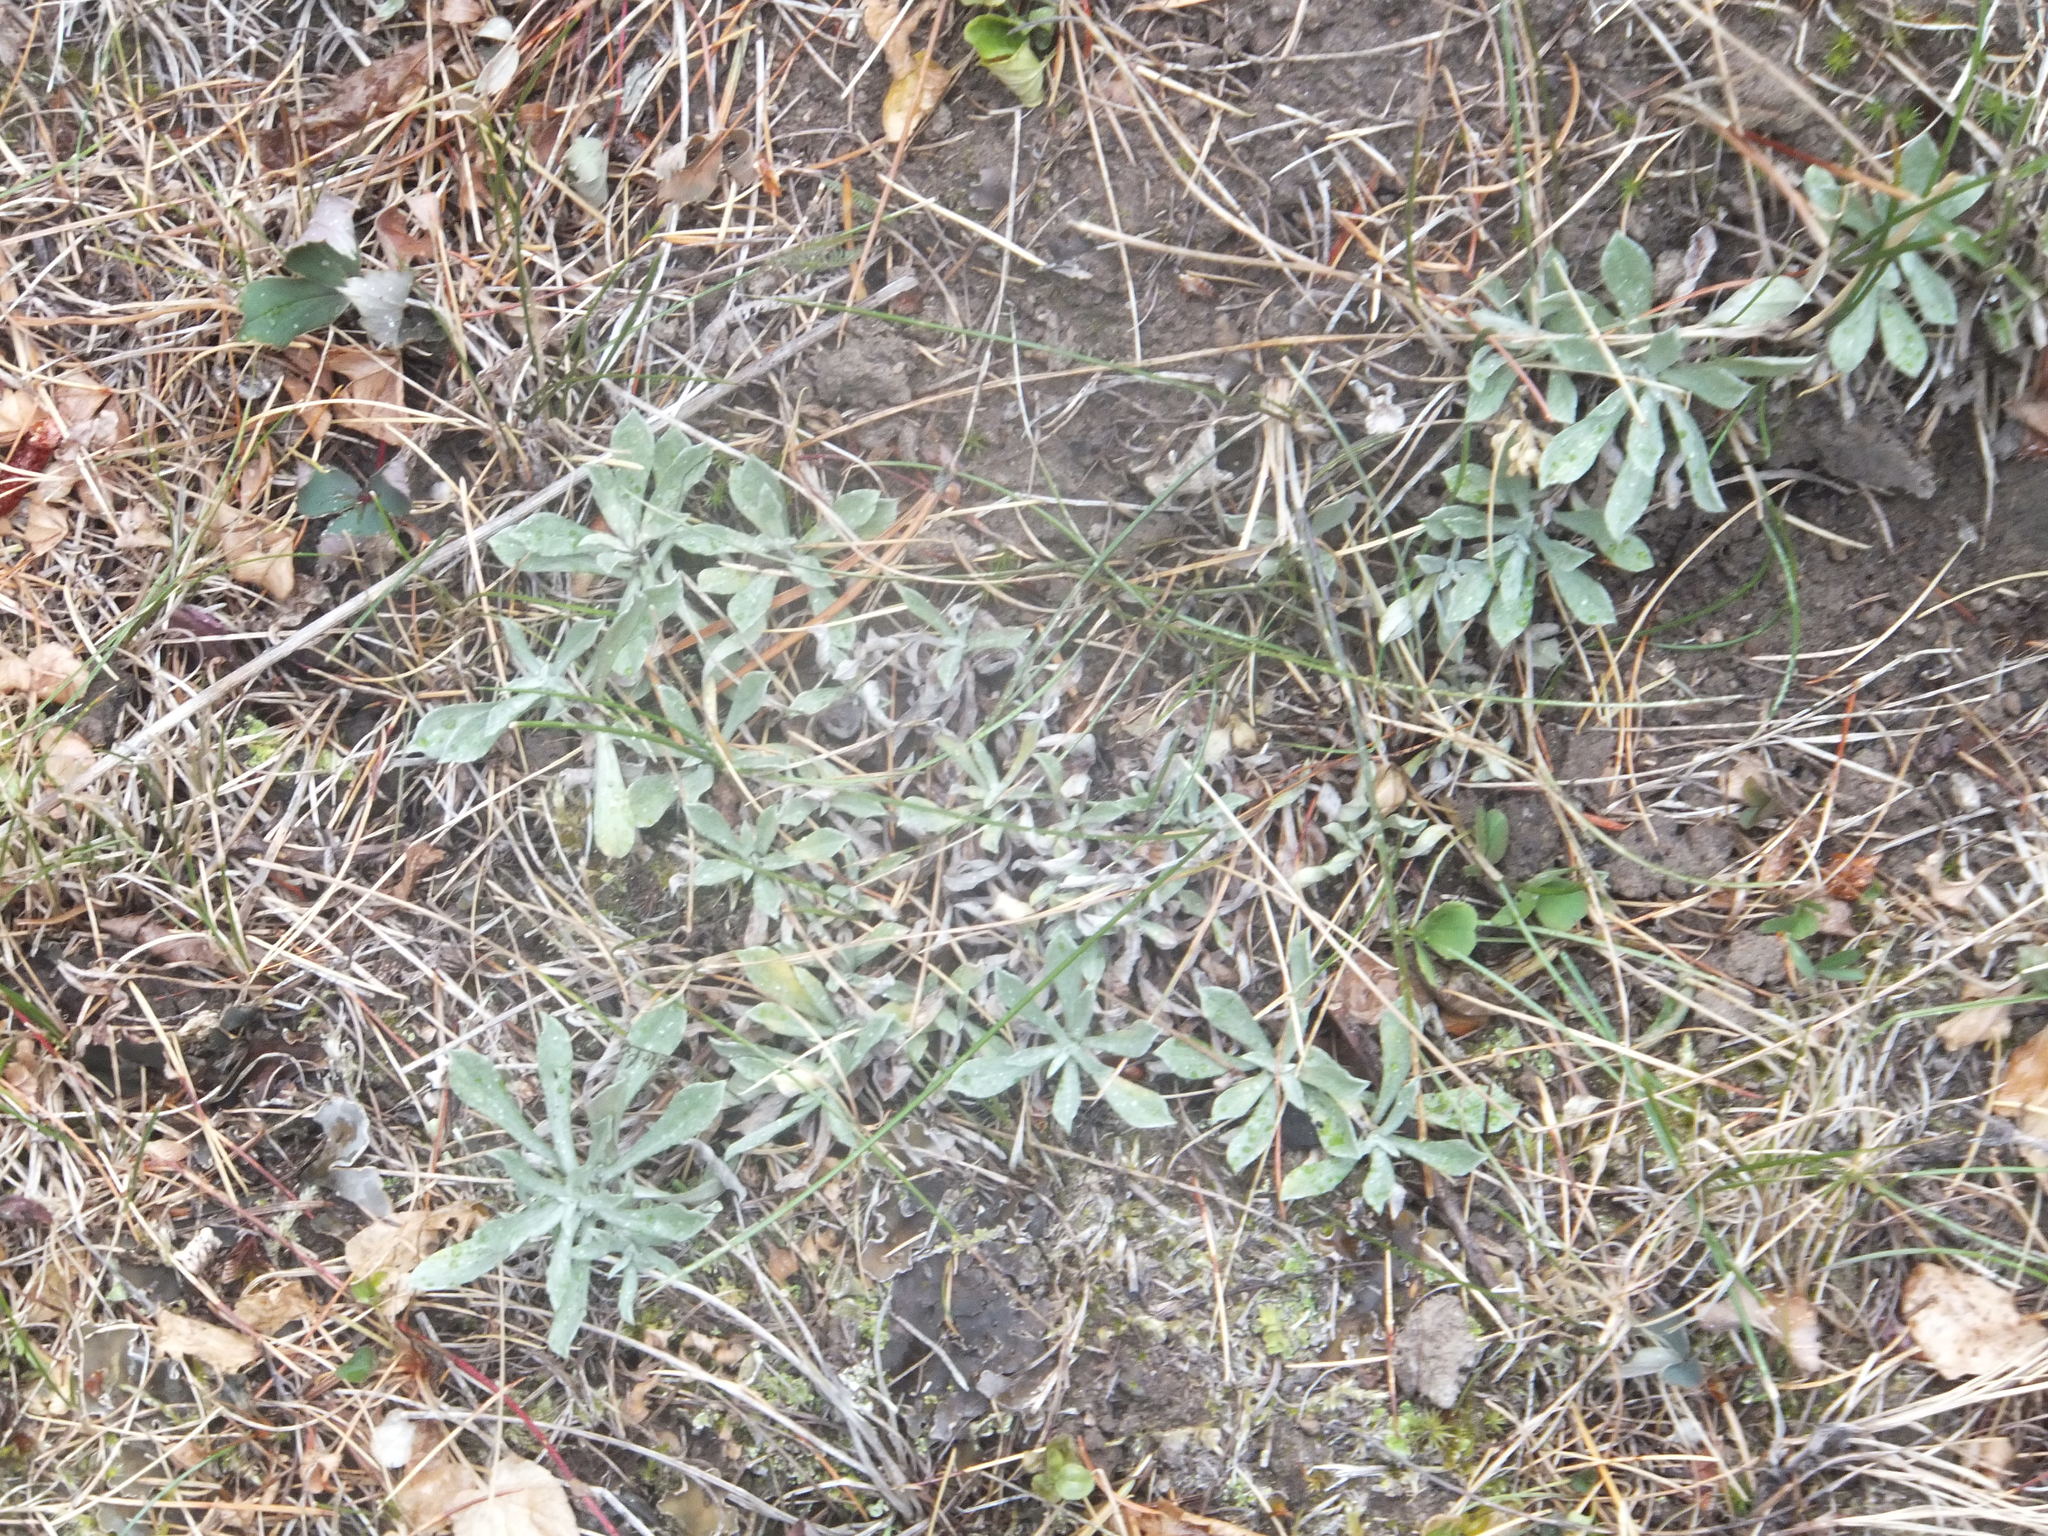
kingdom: Plantae
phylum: Tracheophyta
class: Magnoliopsida
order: Asterales
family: Asteraceae
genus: Antennaria
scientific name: Antennaria umbrinella
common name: Brown pussytoes
